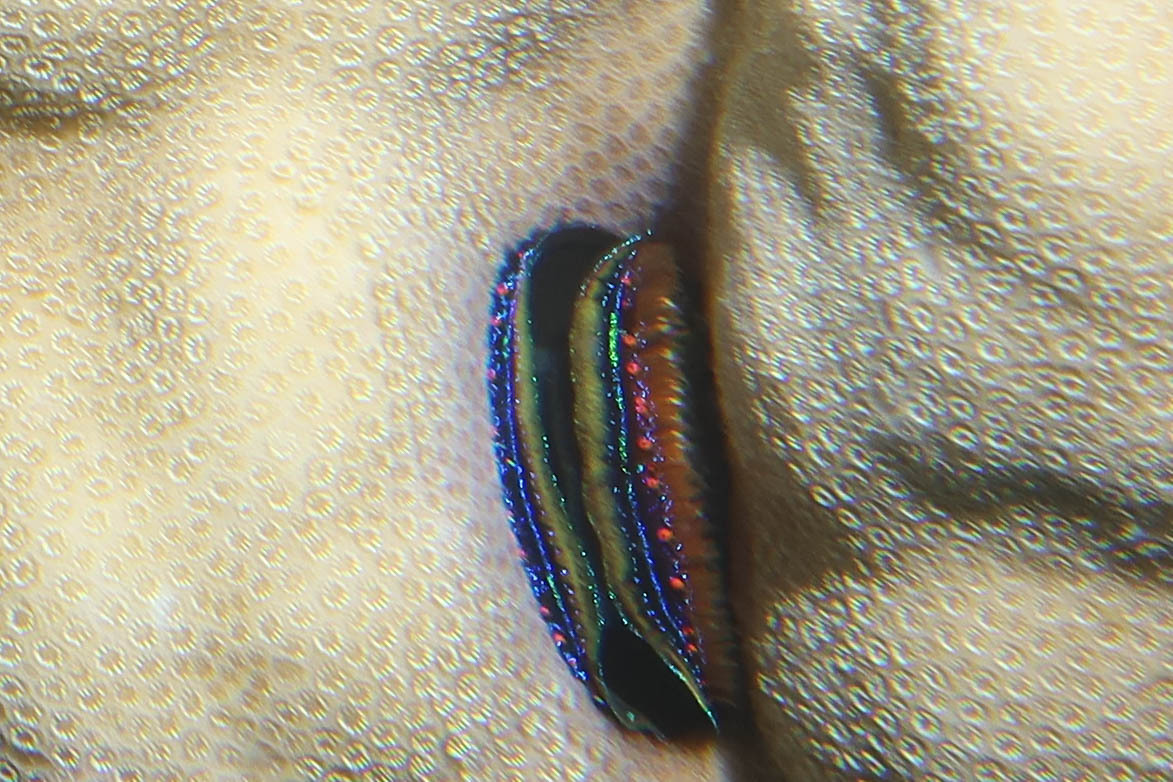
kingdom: Animalia
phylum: Mollusca
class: Bivalvia
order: Pectinida
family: Pectinidae
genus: Pedum
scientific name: Pedum spondyloideum
